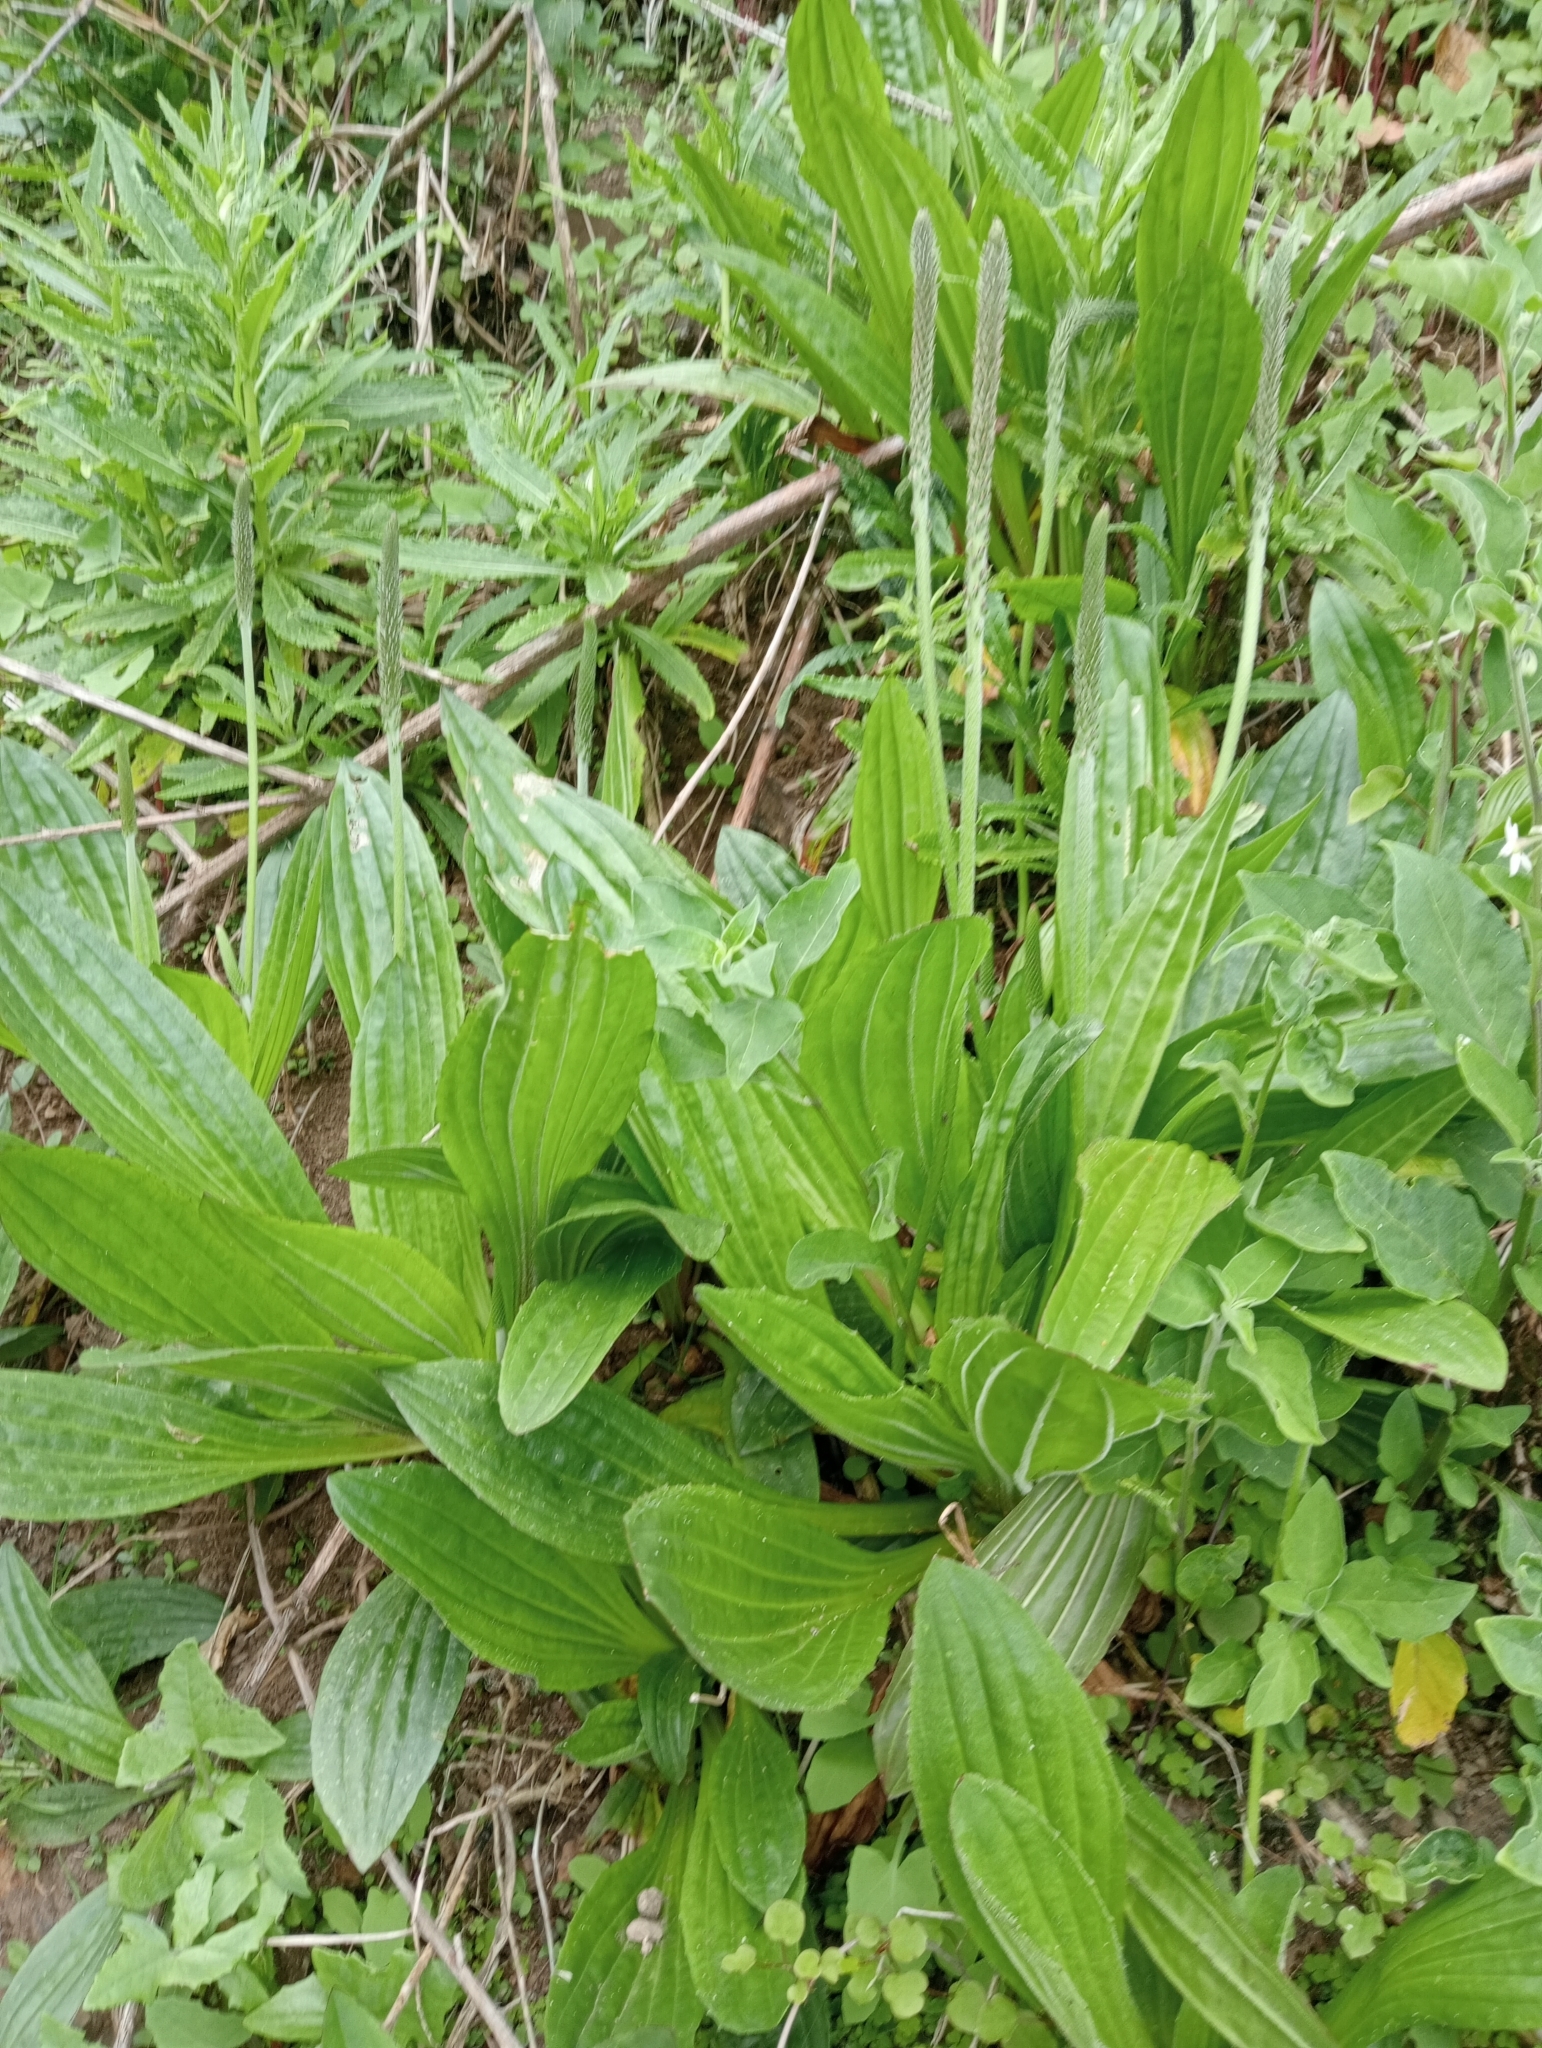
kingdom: Plantae
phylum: Tracheophyta
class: Magnoliopsida
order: Lamiales
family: Plantaginaceae
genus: Plantago
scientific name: Plantago australis
